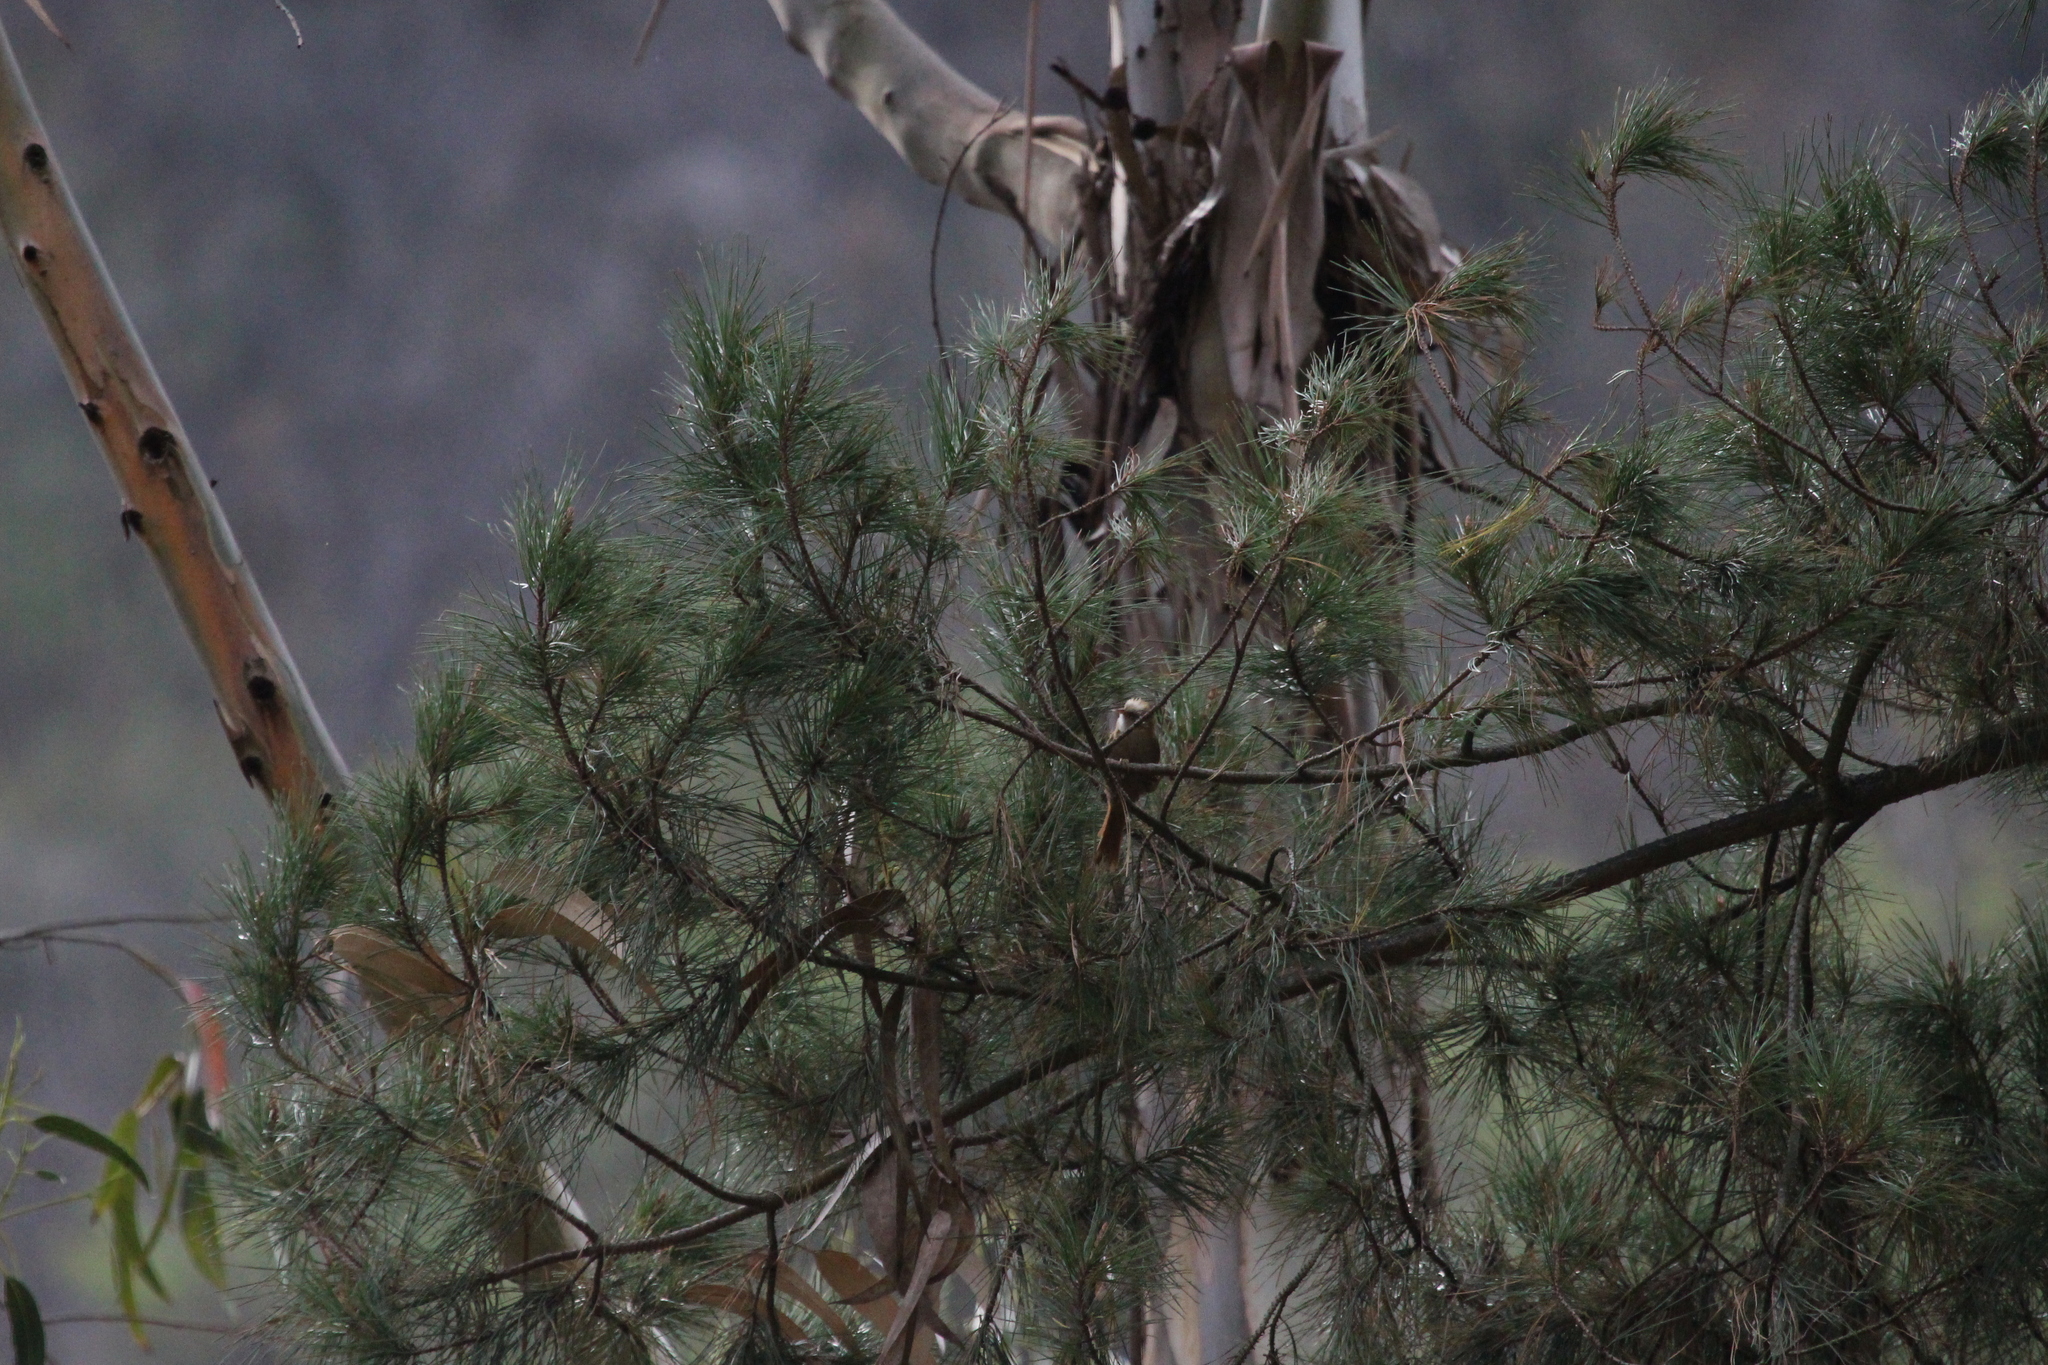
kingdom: Animalia
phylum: Chordata
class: Aves
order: Passeriformes
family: Furnariidae
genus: Cranioleuca
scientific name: Cranioleuca albicapilla
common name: Creamy-crested spinetail
